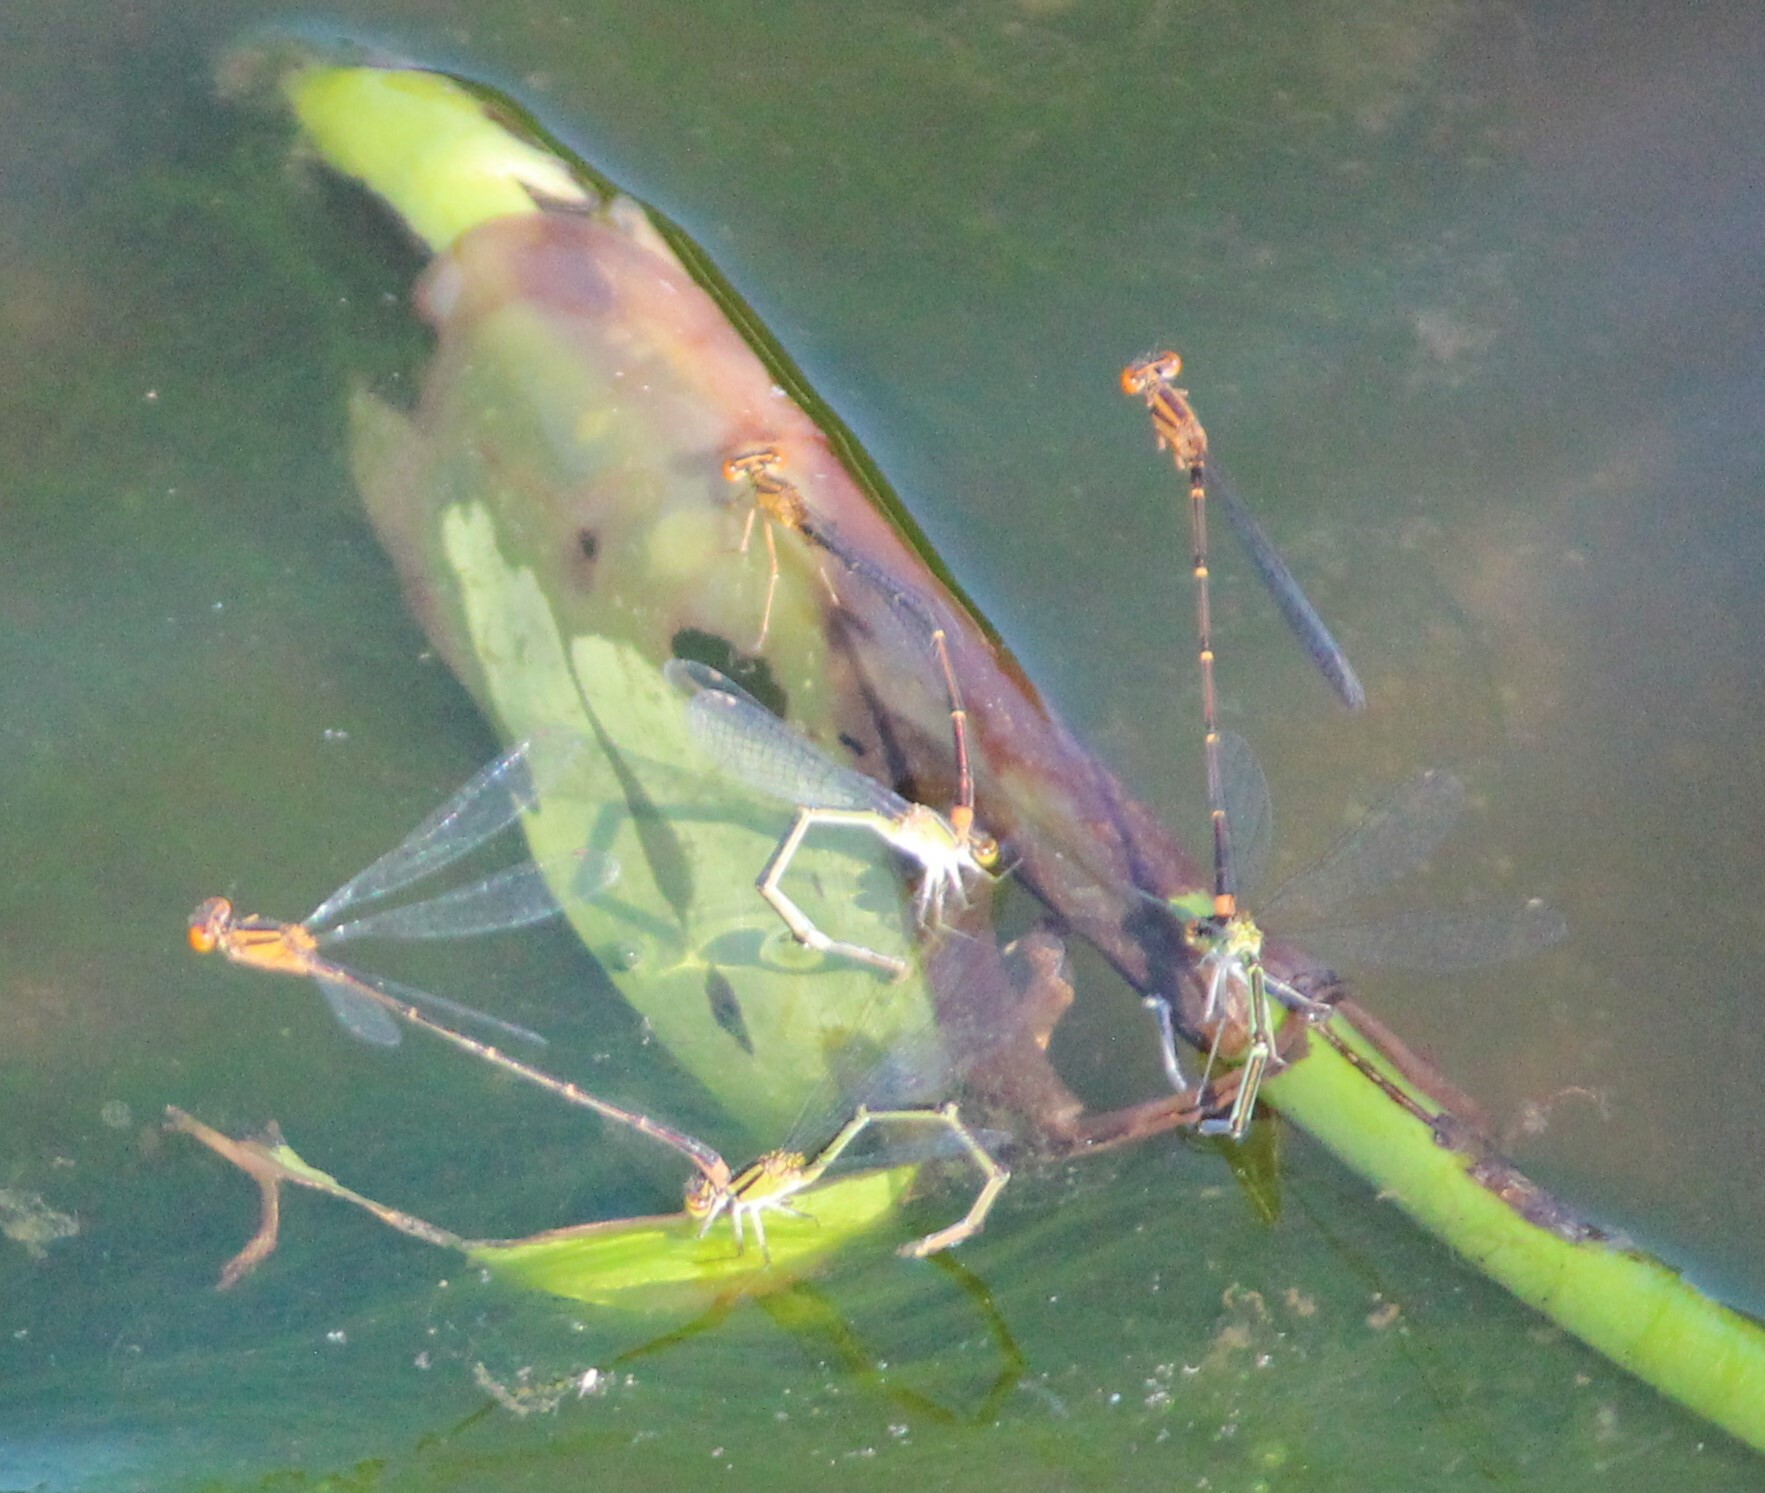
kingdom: Animalia
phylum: Arthropoda
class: Insecta
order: Odonata
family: Coenagrionidae
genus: Enallagma
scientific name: Enallagma signatum
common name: Orange bluet
